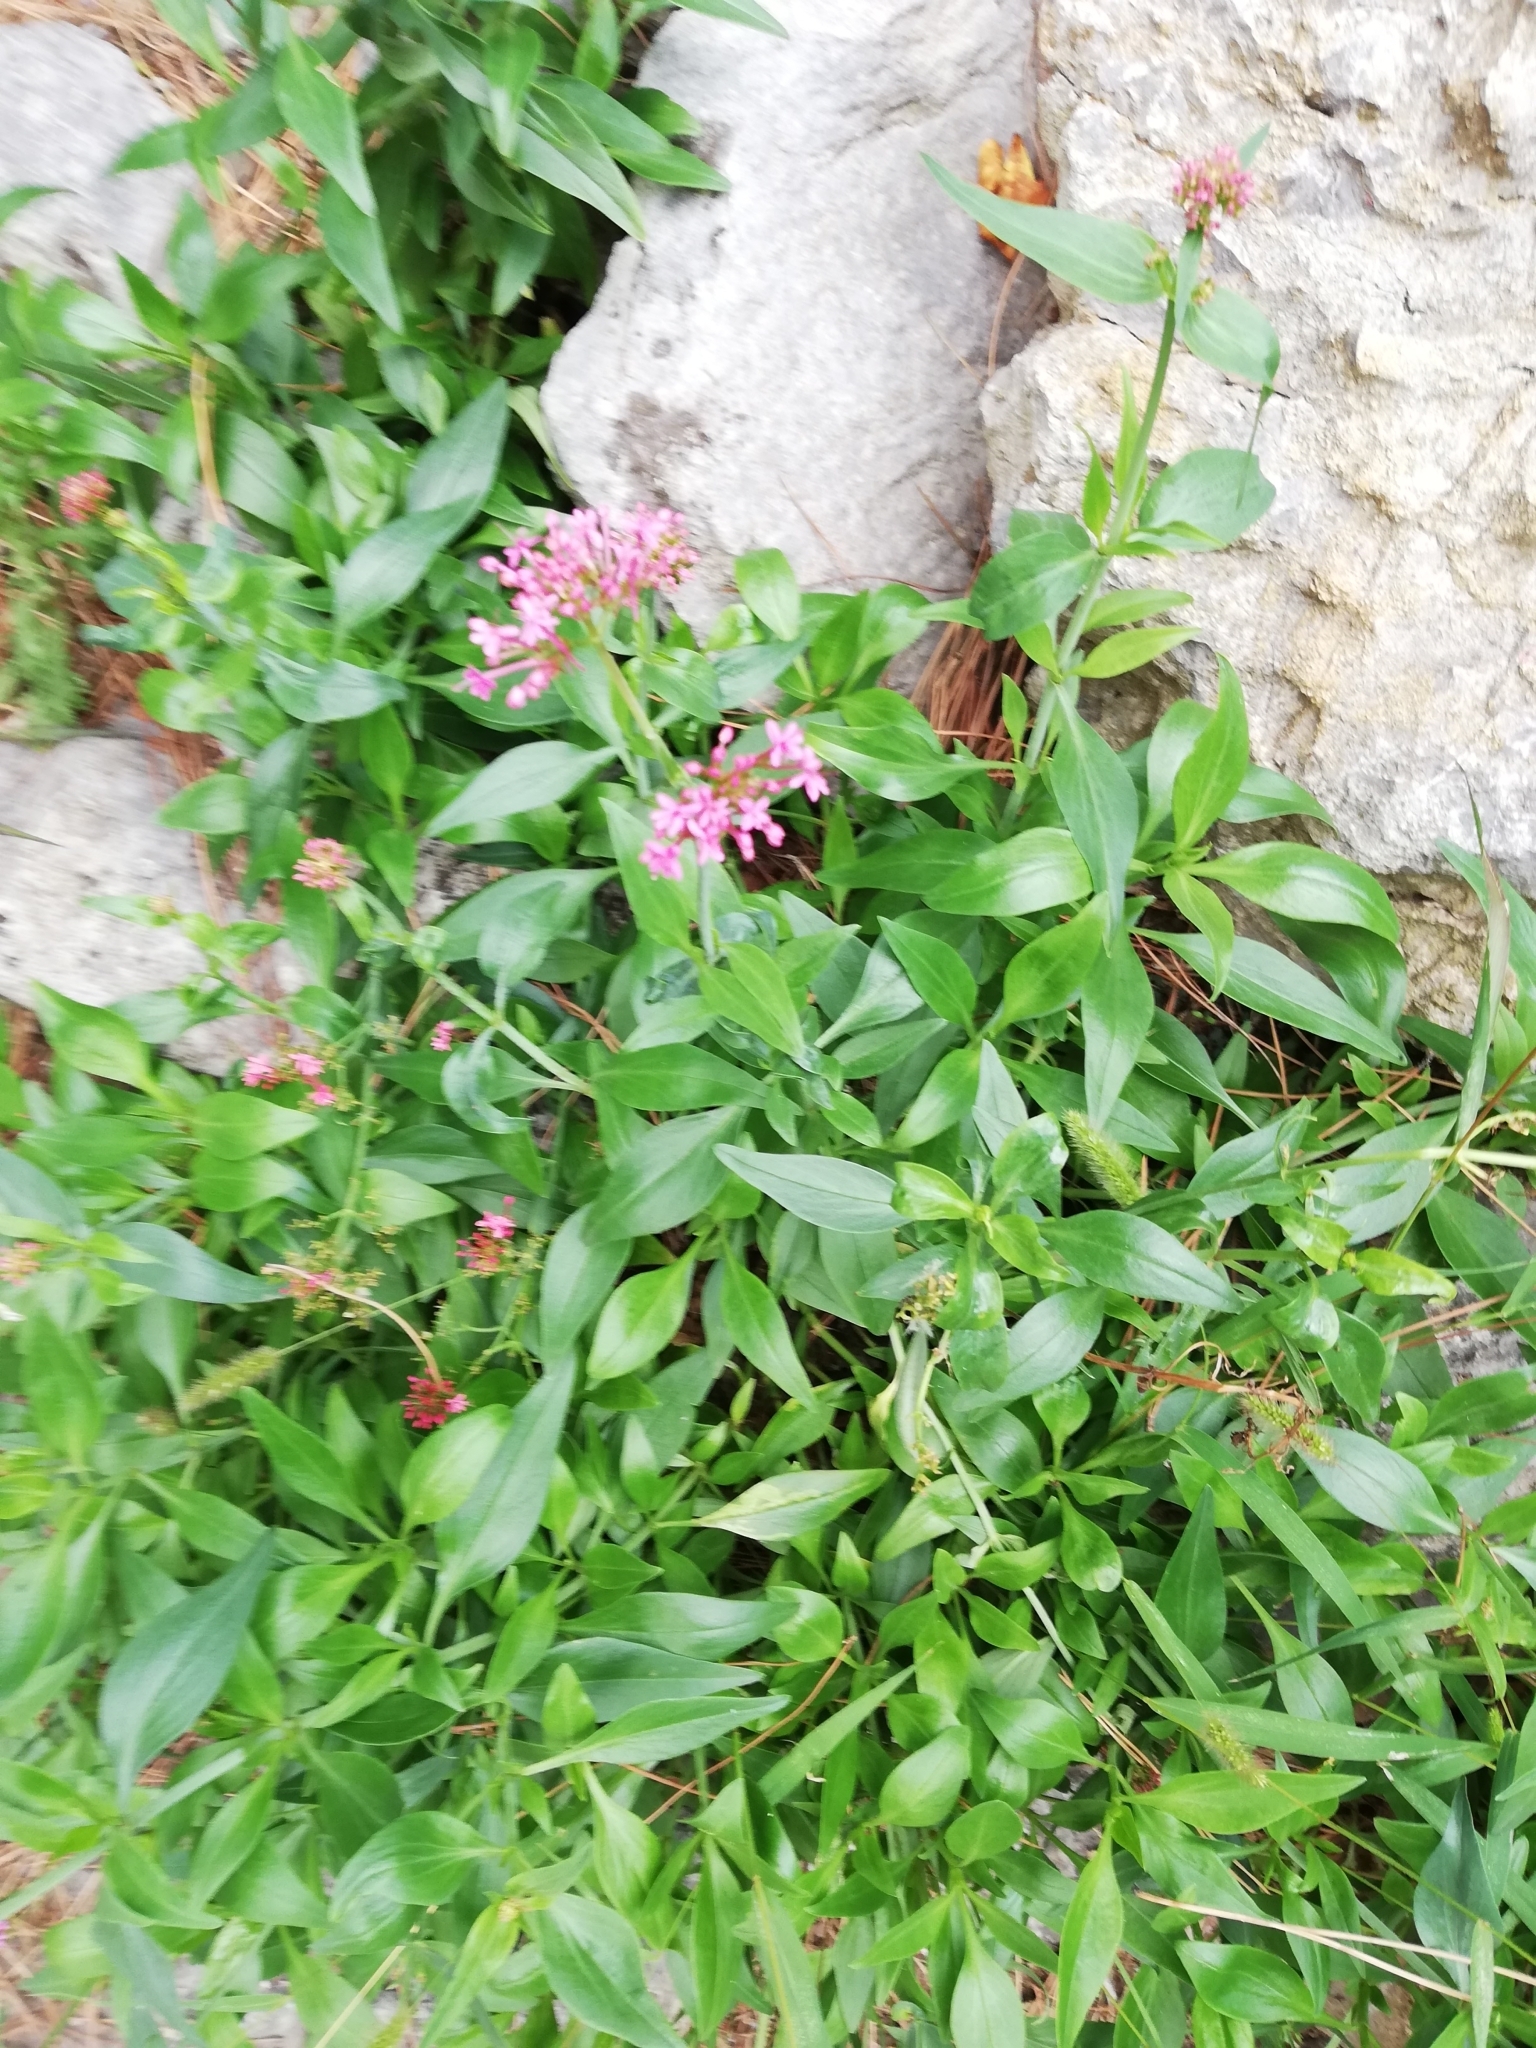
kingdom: Plantae
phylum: Tracheophyta
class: Magnoliopsida
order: Dipsacales
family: Caprifoliaceae
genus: Centranthus
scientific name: Centranthus ruber
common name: Red valerian
